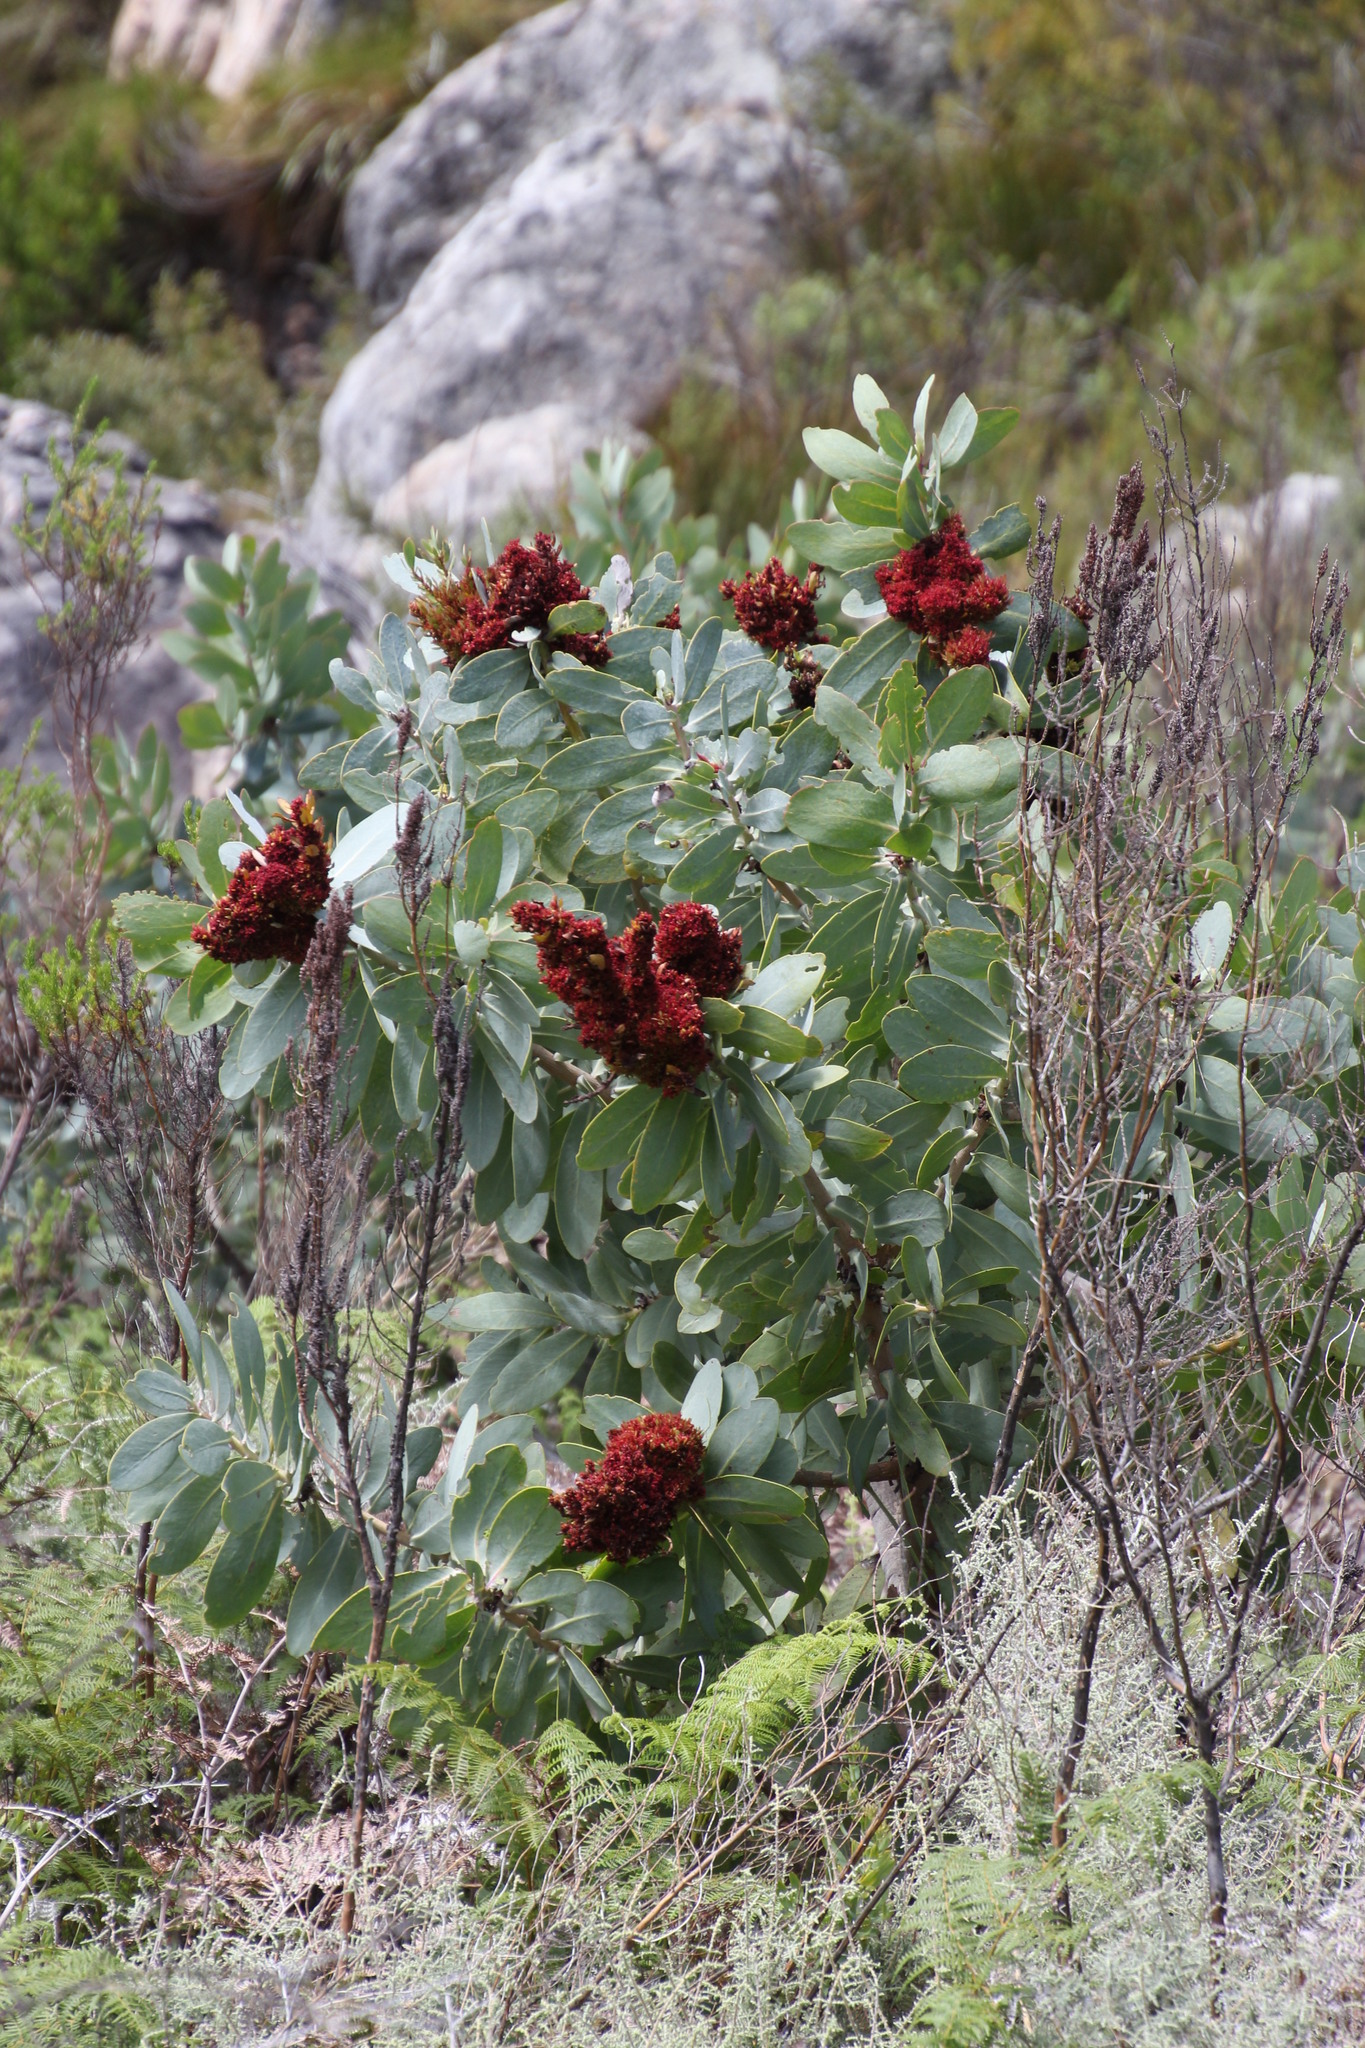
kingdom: Bacteria
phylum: Firmicutes
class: Bacilli
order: Acholeplasmatales
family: Acholeplasmataceae
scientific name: Acholeplasmataceae
